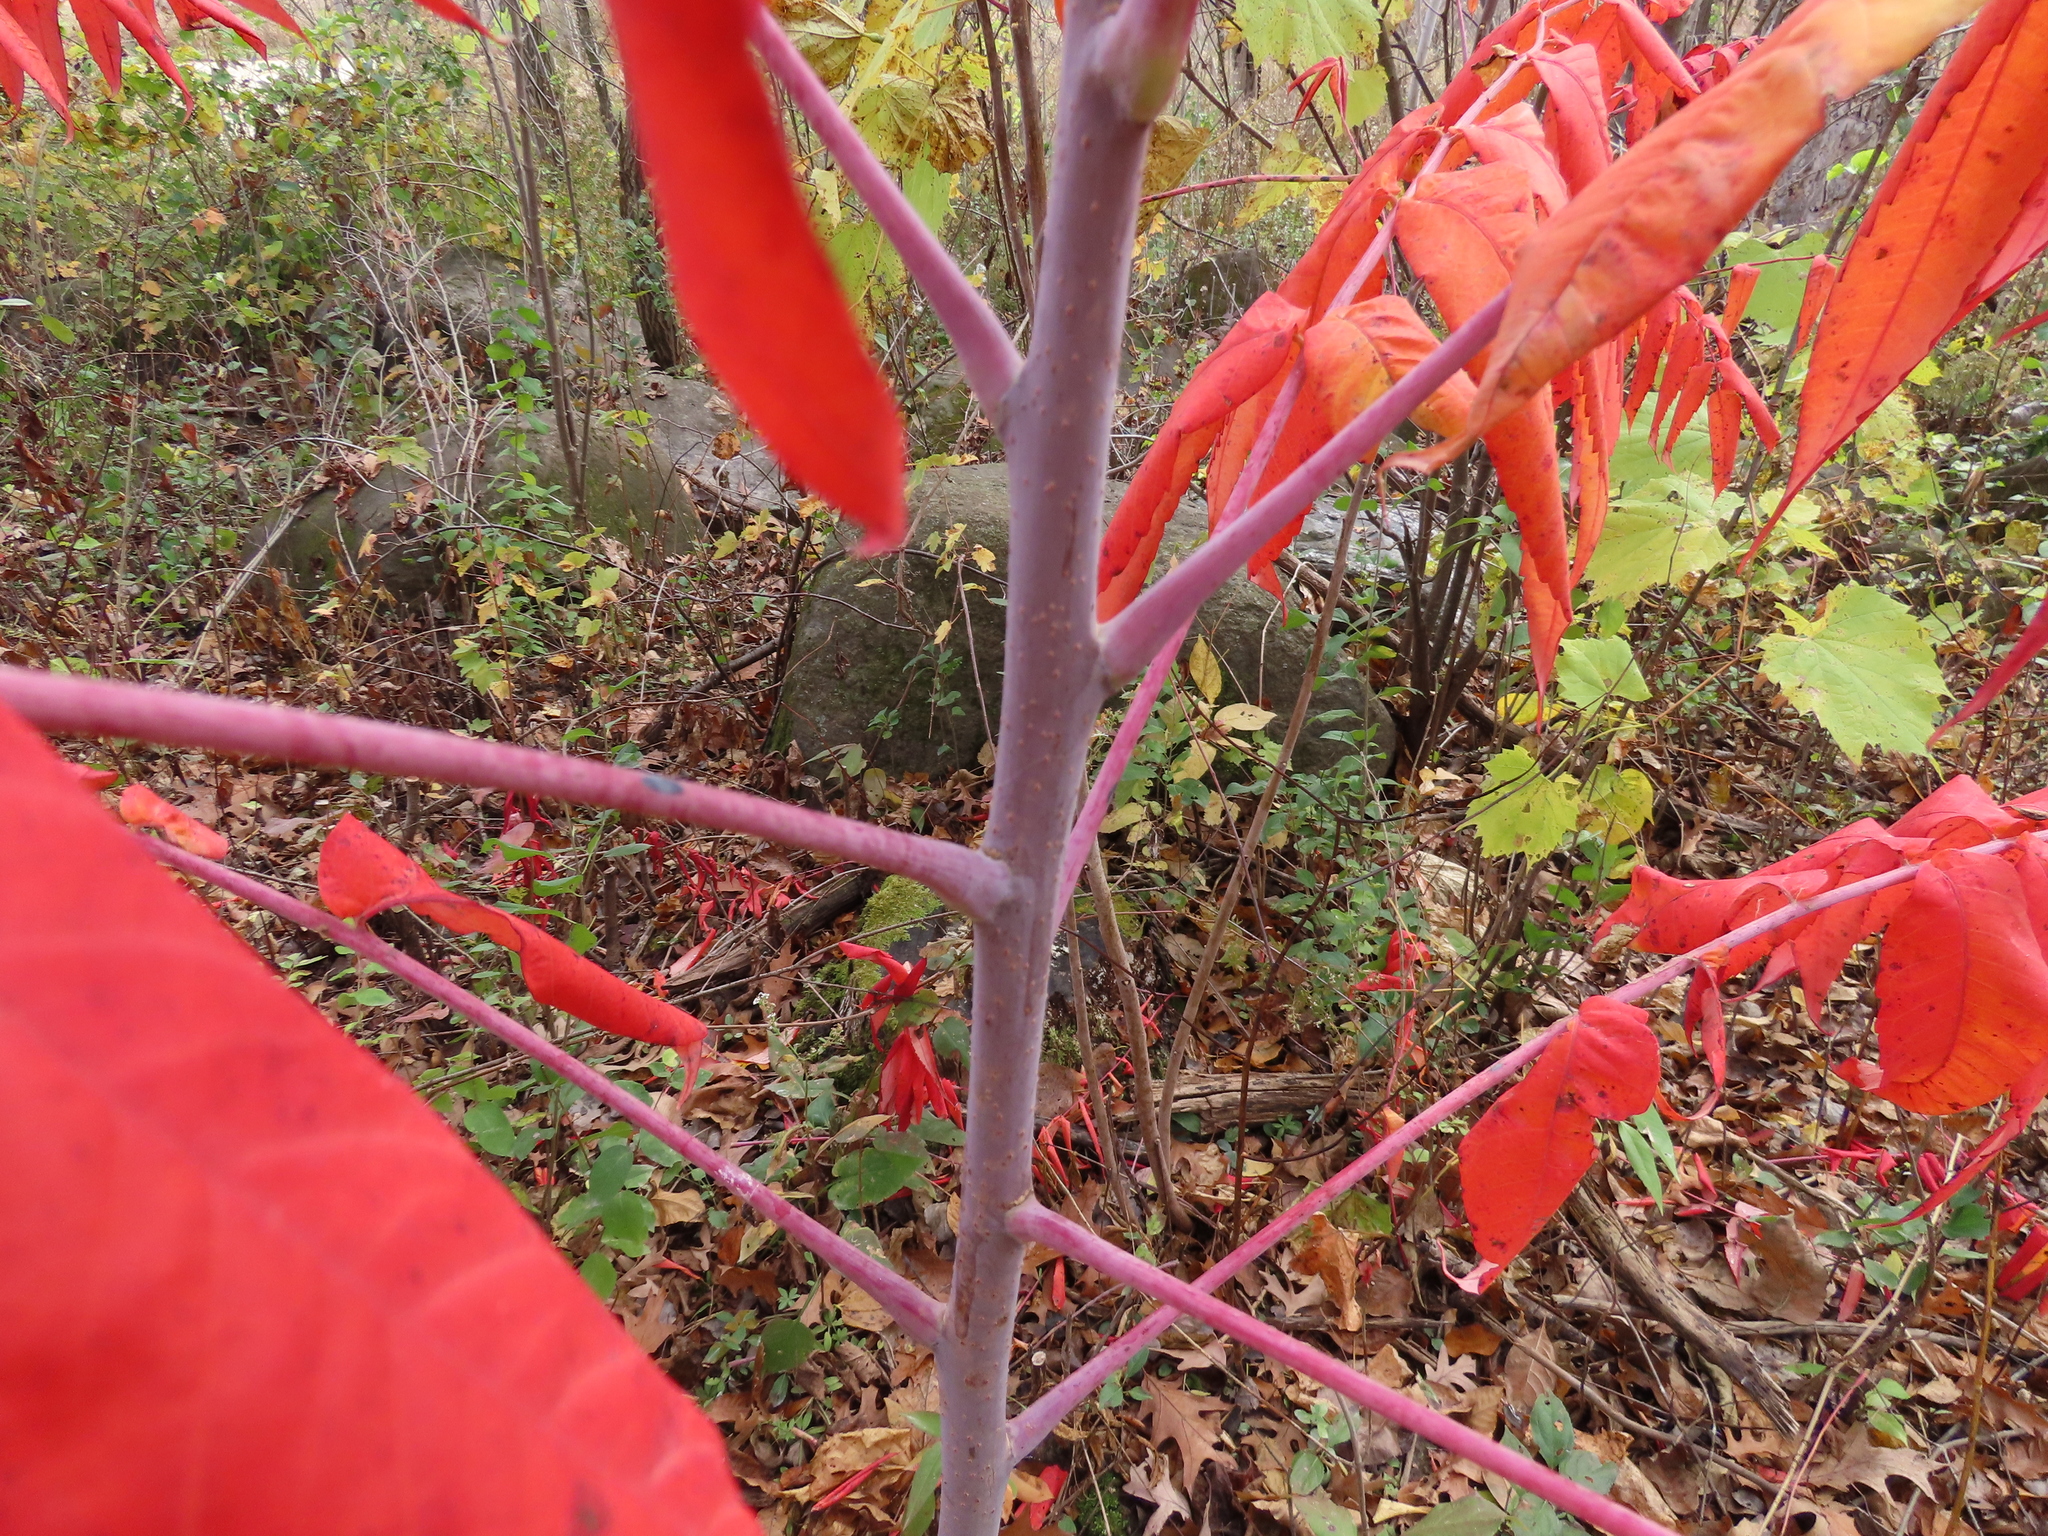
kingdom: Plantae
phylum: Tracheophyta
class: Magnoliopsida
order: Sapindales
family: Anacardiaceae
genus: Rhus
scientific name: Rhus glabra
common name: Scarlet sumac
